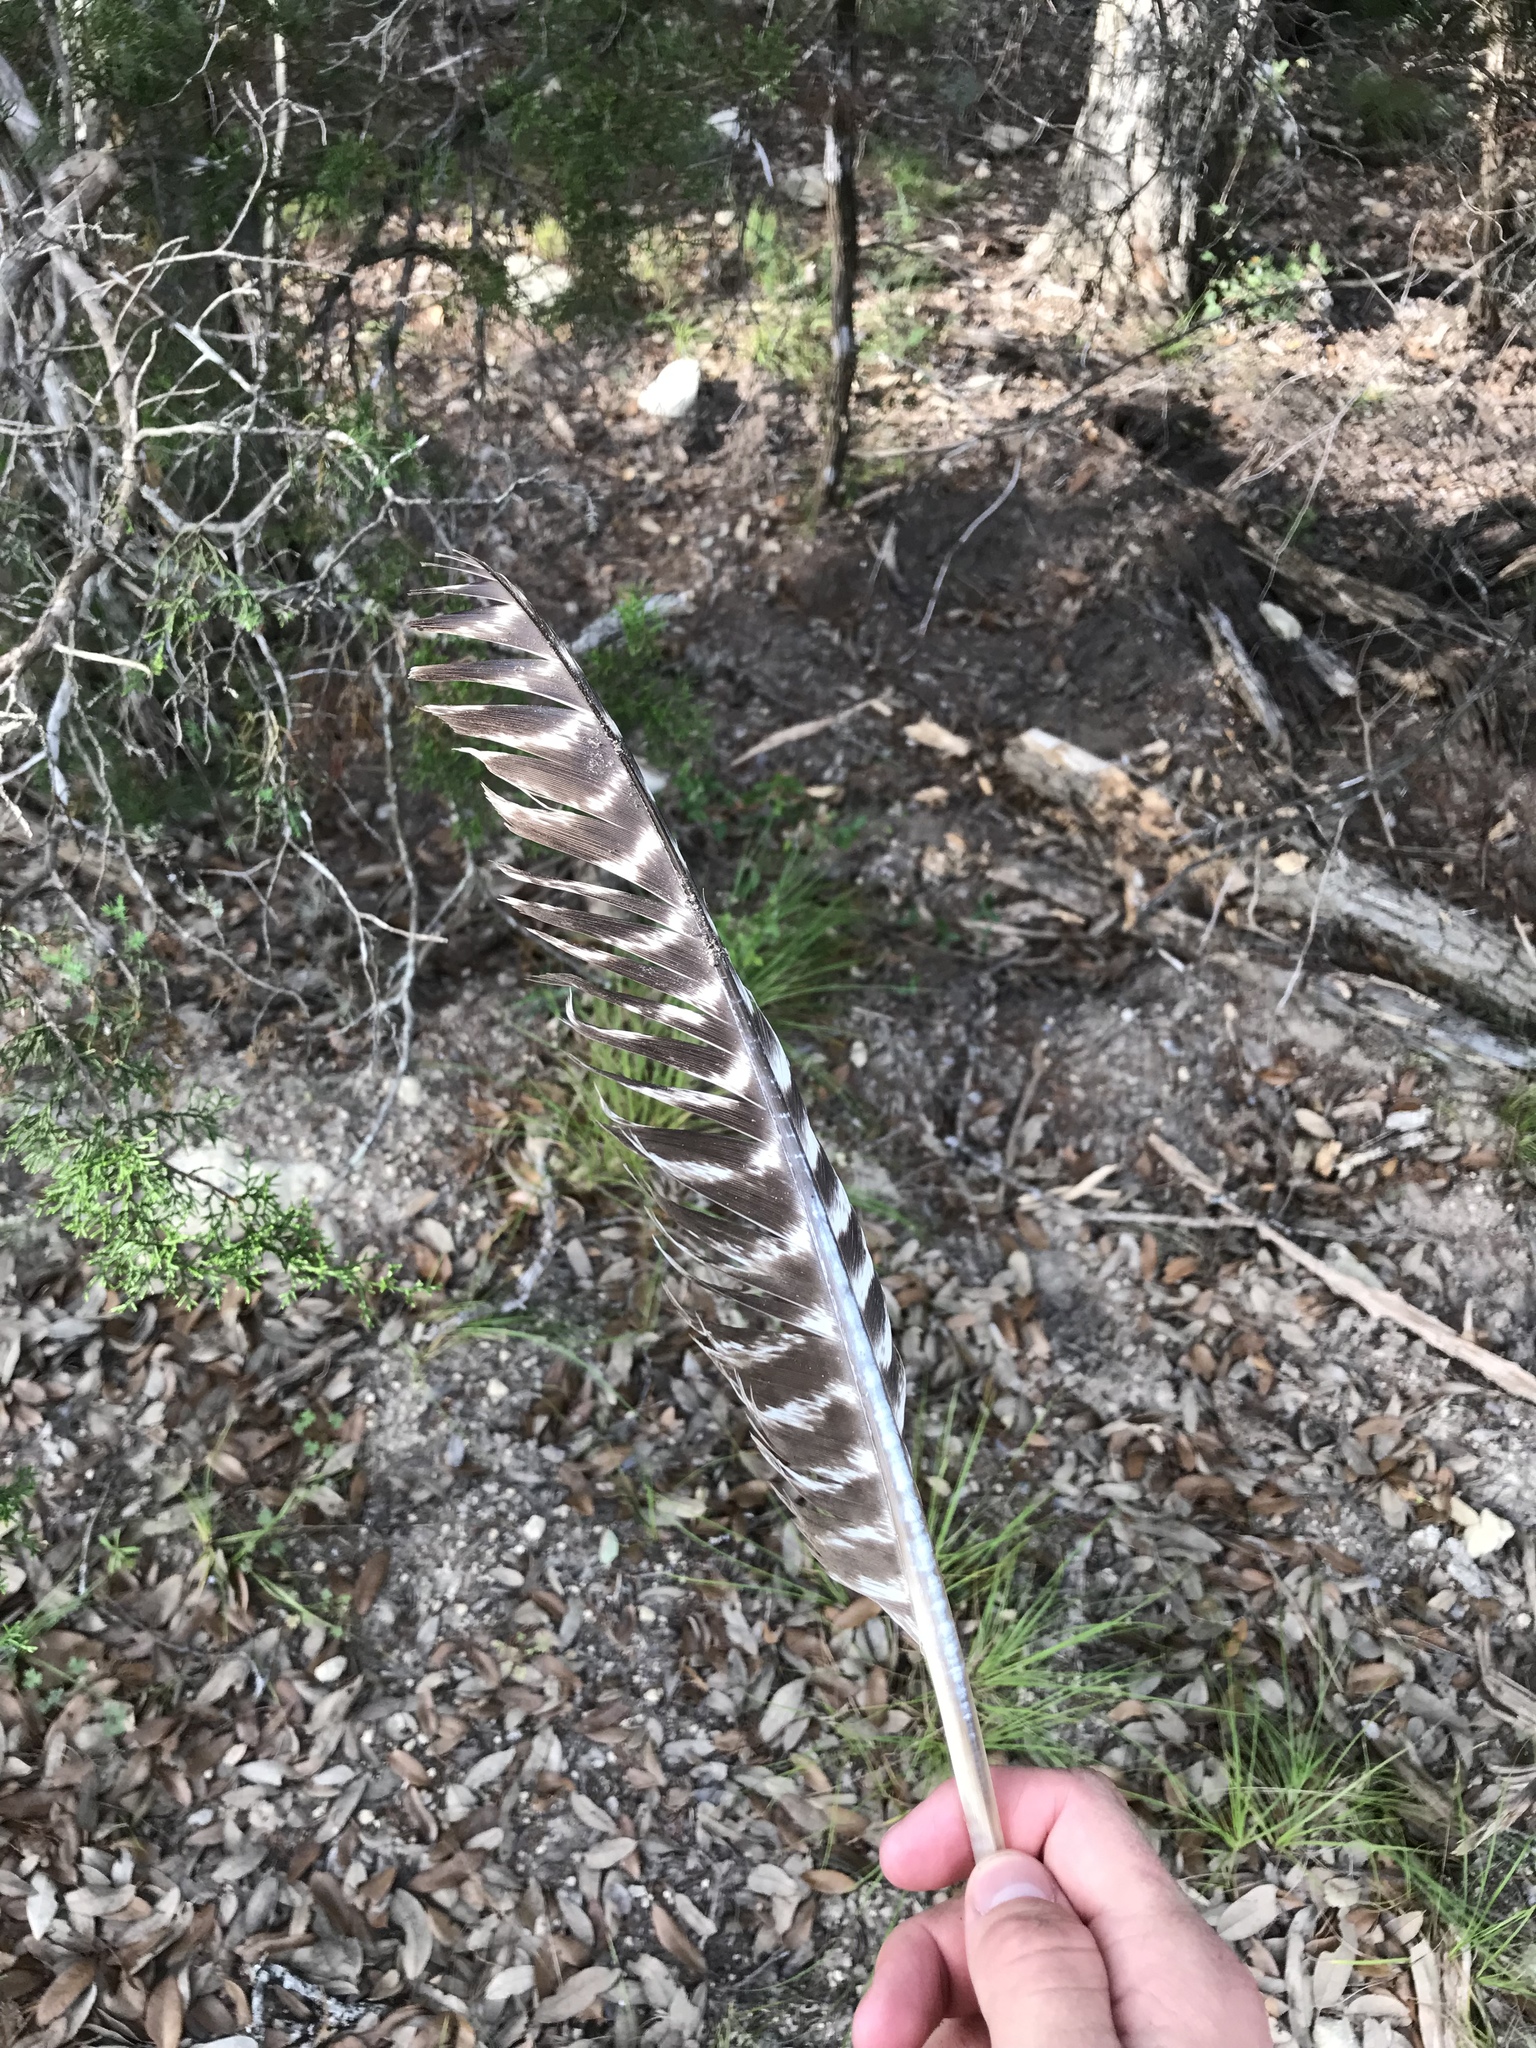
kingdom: Animalia
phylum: Chordata
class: Aves
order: Galliformes
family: Phasianidae
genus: Meleagris
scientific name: Meleagris gallopavo
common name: Wild turkey
